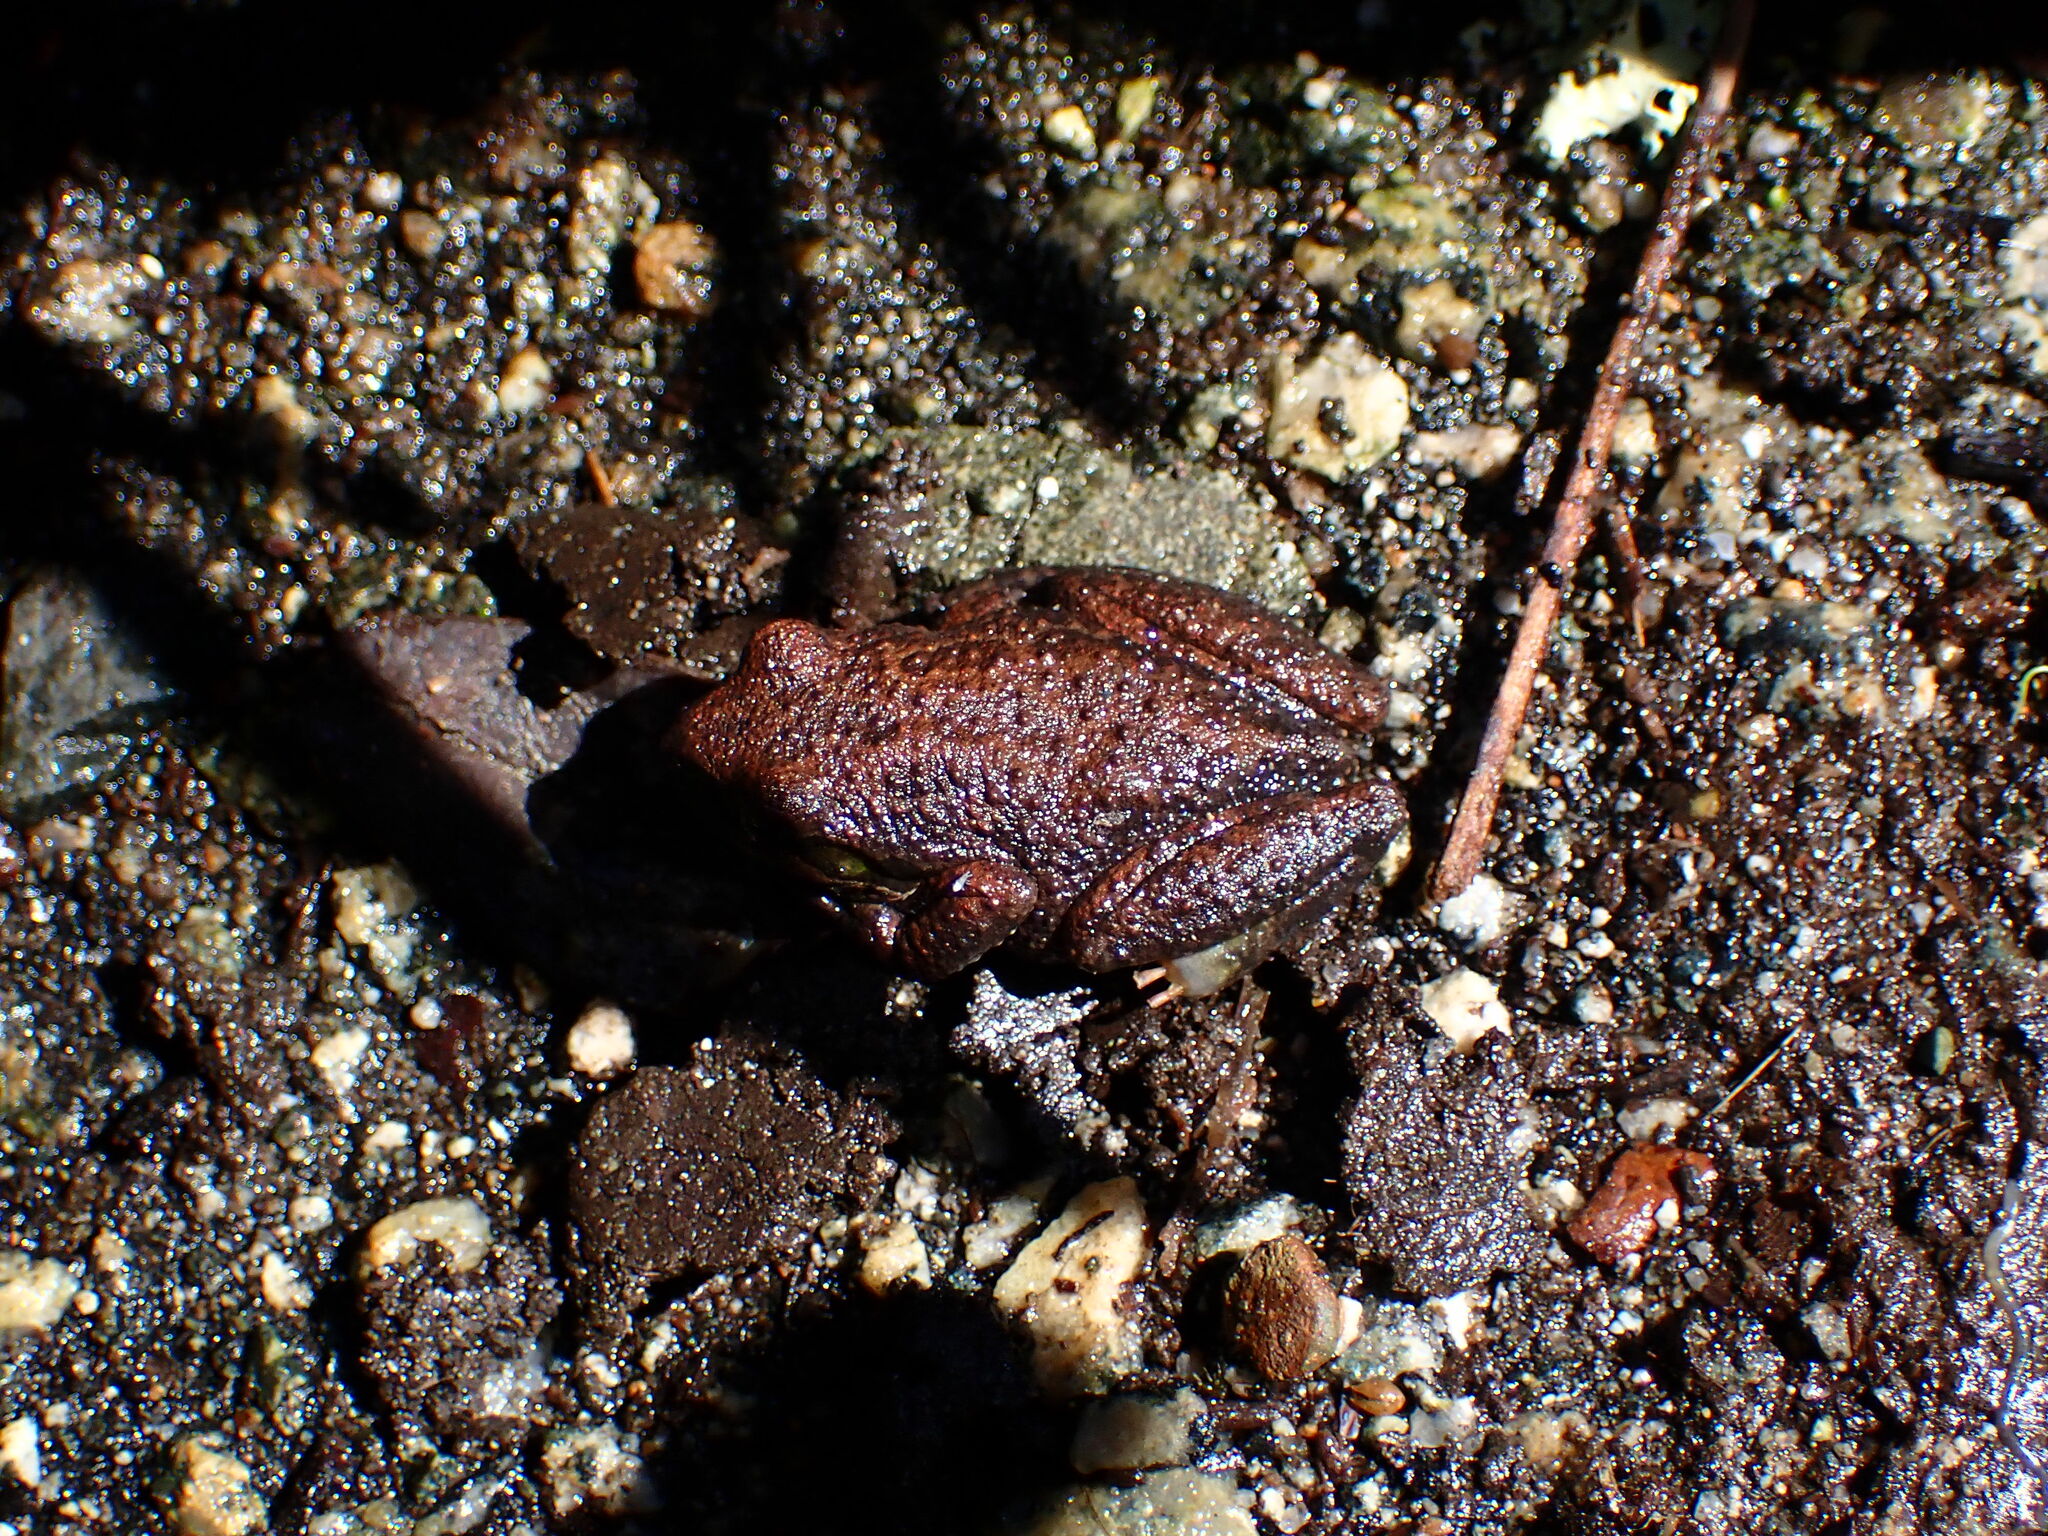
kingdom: Animalia
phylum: Chordata
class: Amphibia
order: Anura
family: Hylidae
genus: Pseudacris
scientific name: Pseudacris regilla
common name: Pacific chorus frog
